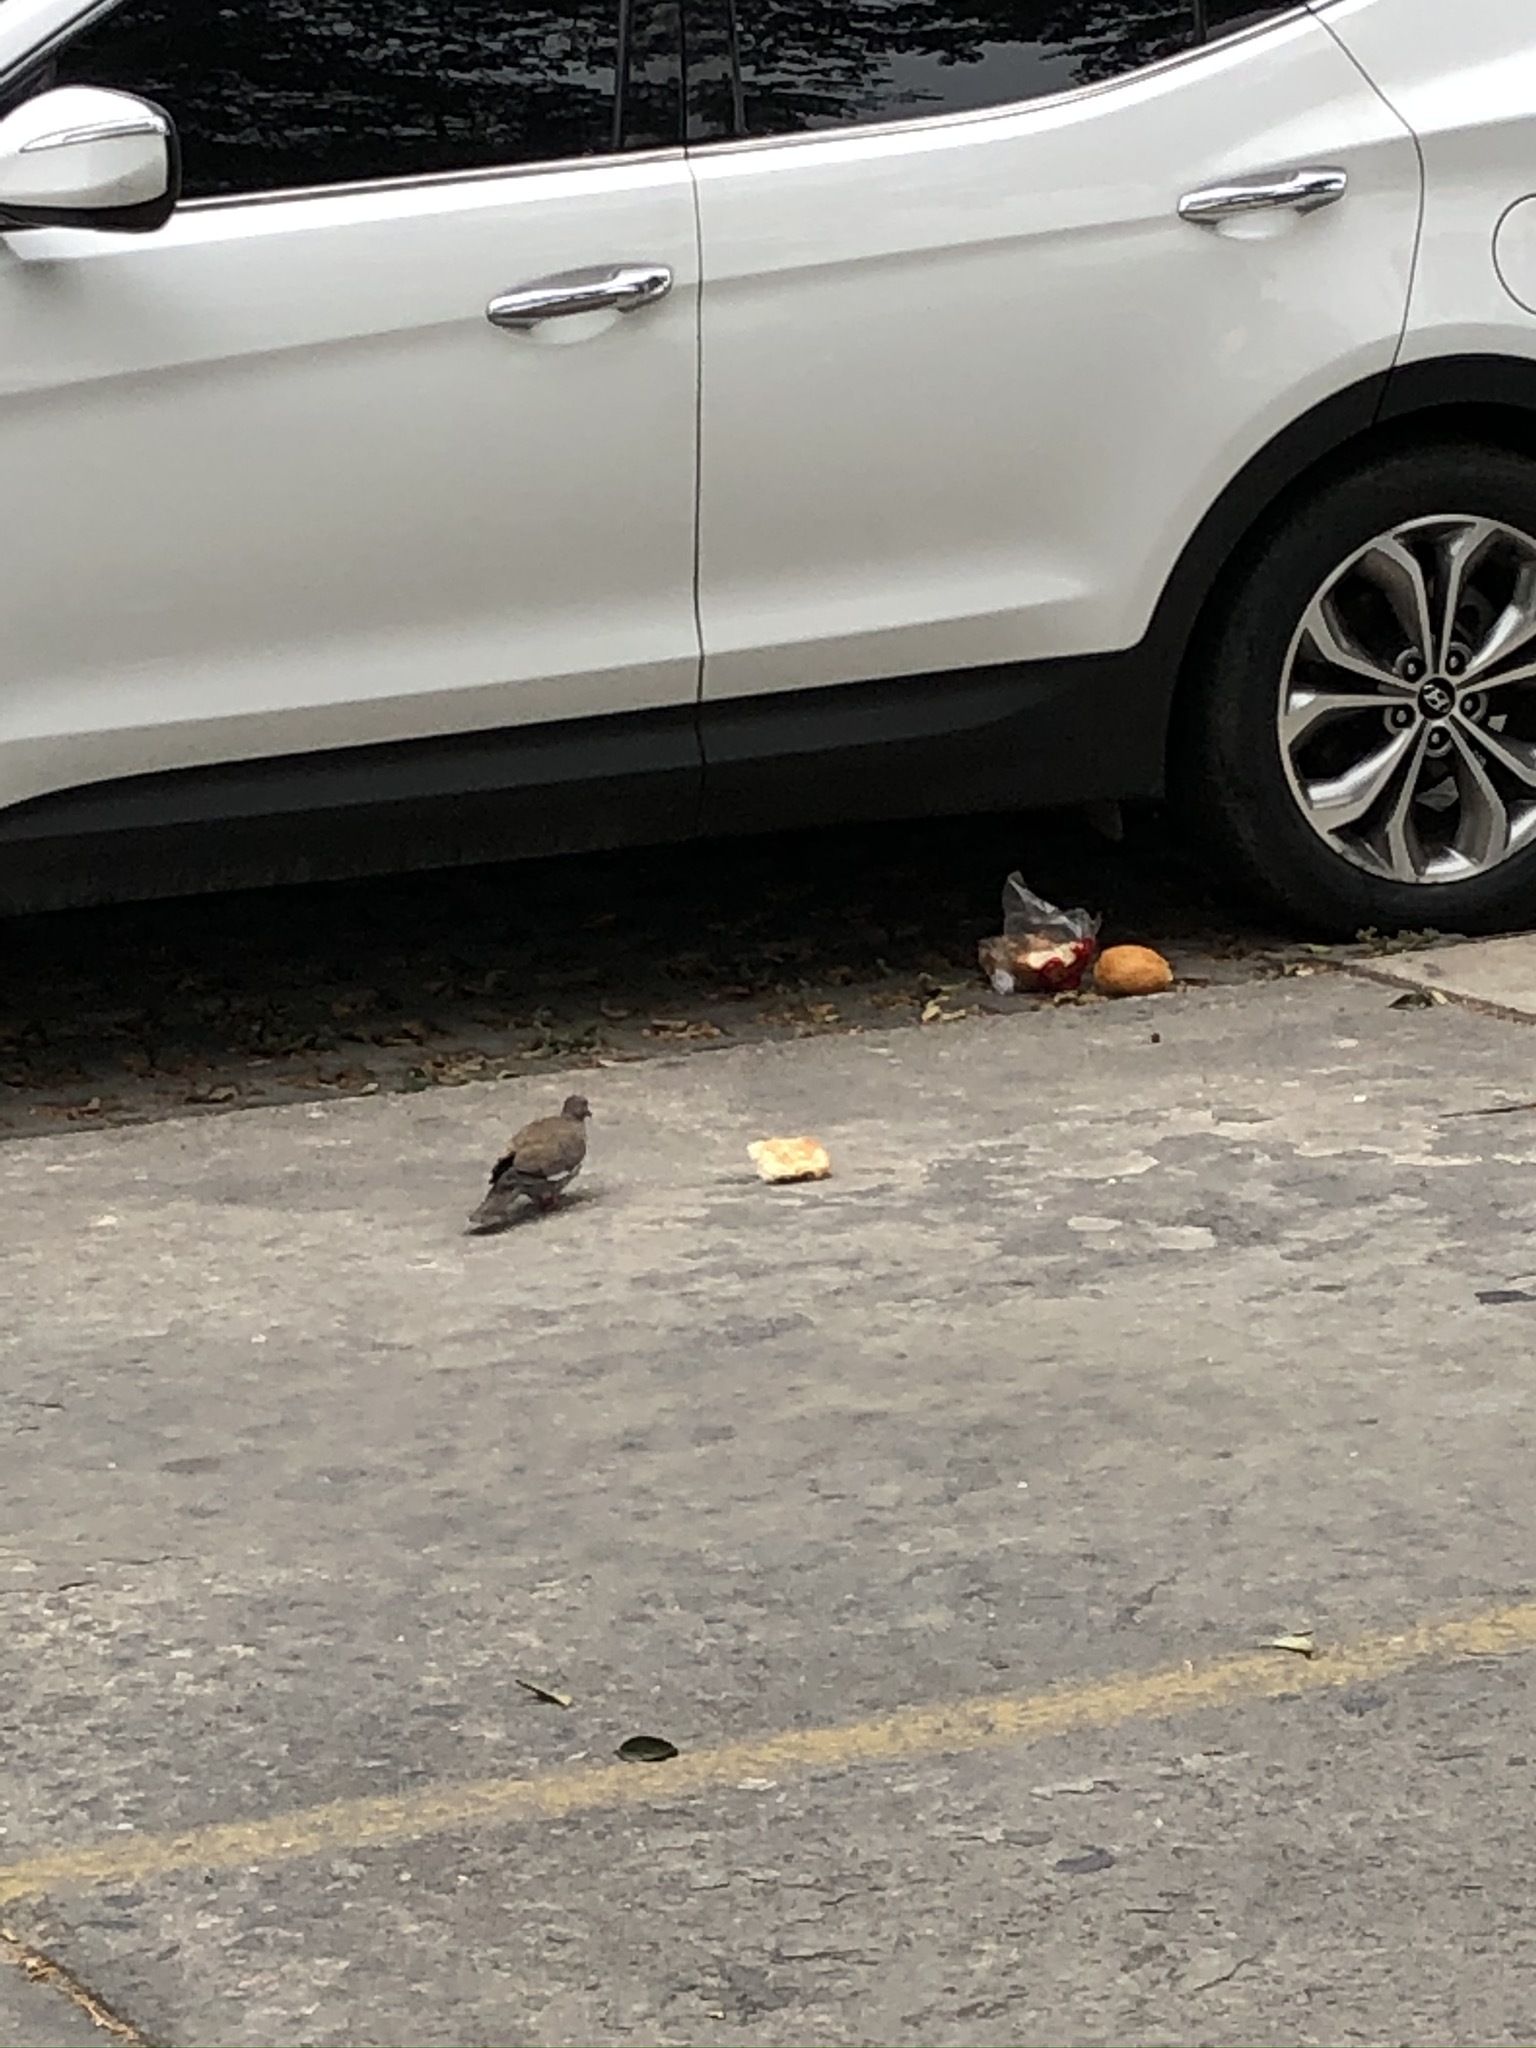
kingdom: Animalia
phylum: Chordata
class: Aves
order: Columbiformes
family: Columbidae
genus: Zenaida
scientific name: Zenaida meloda
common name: West peruvian dove
